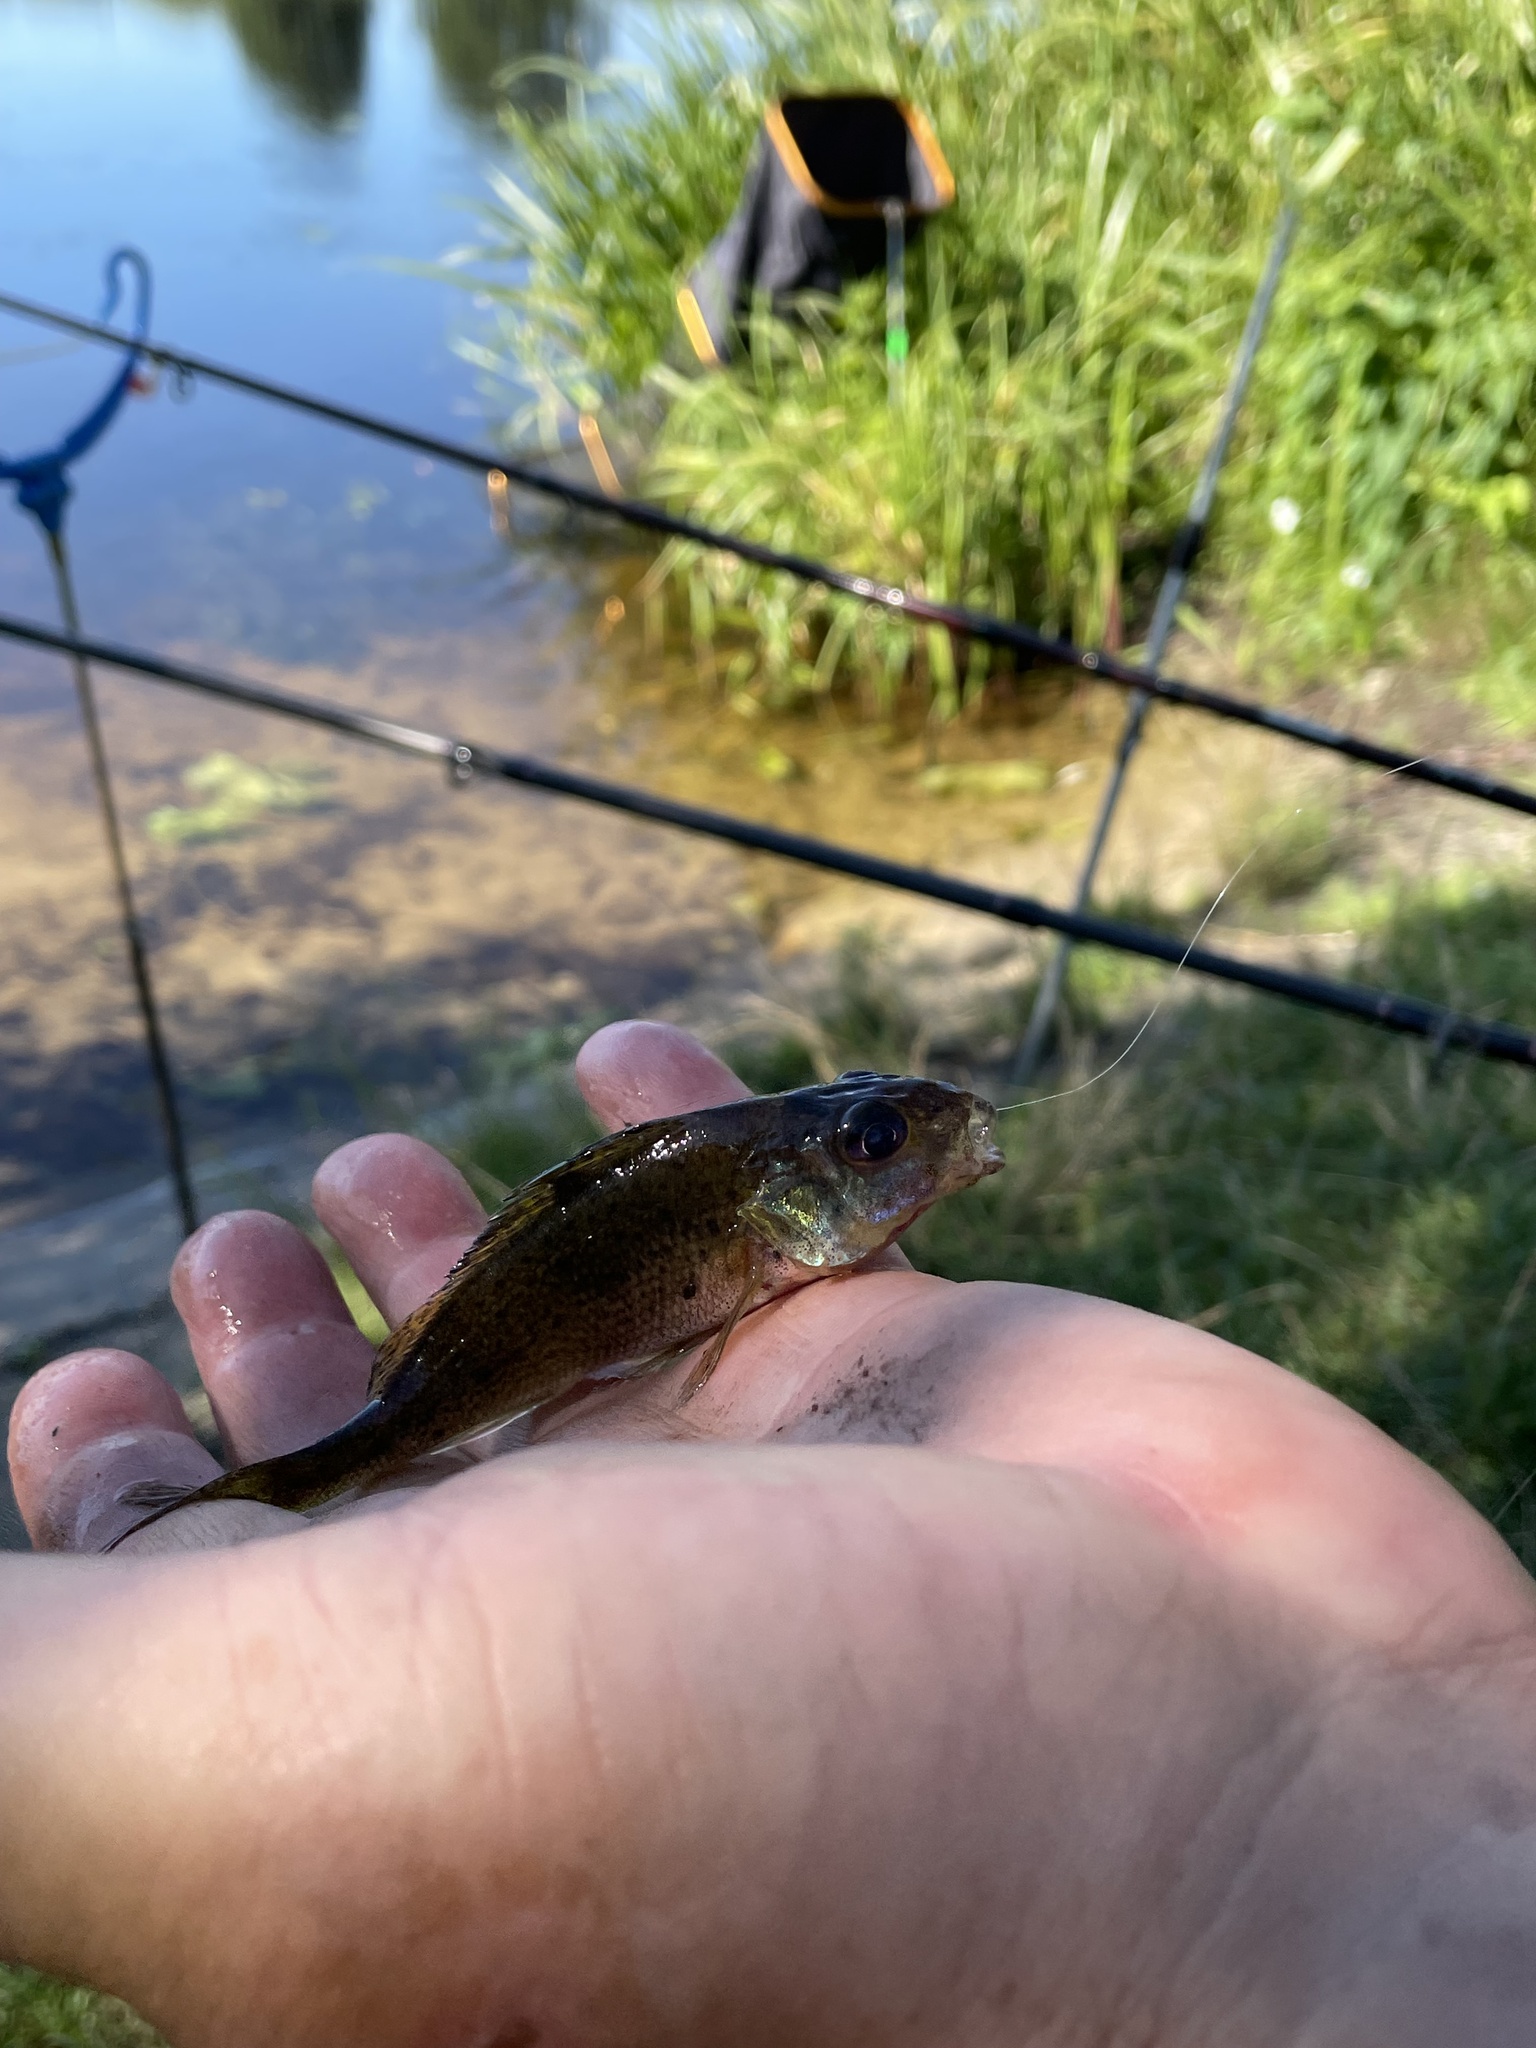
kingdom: Animalia
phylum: Chordata
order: Perciformes
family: Percidae
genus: Gymnocephalus
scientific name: Gymnocephalus cernua
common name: Ruffe
